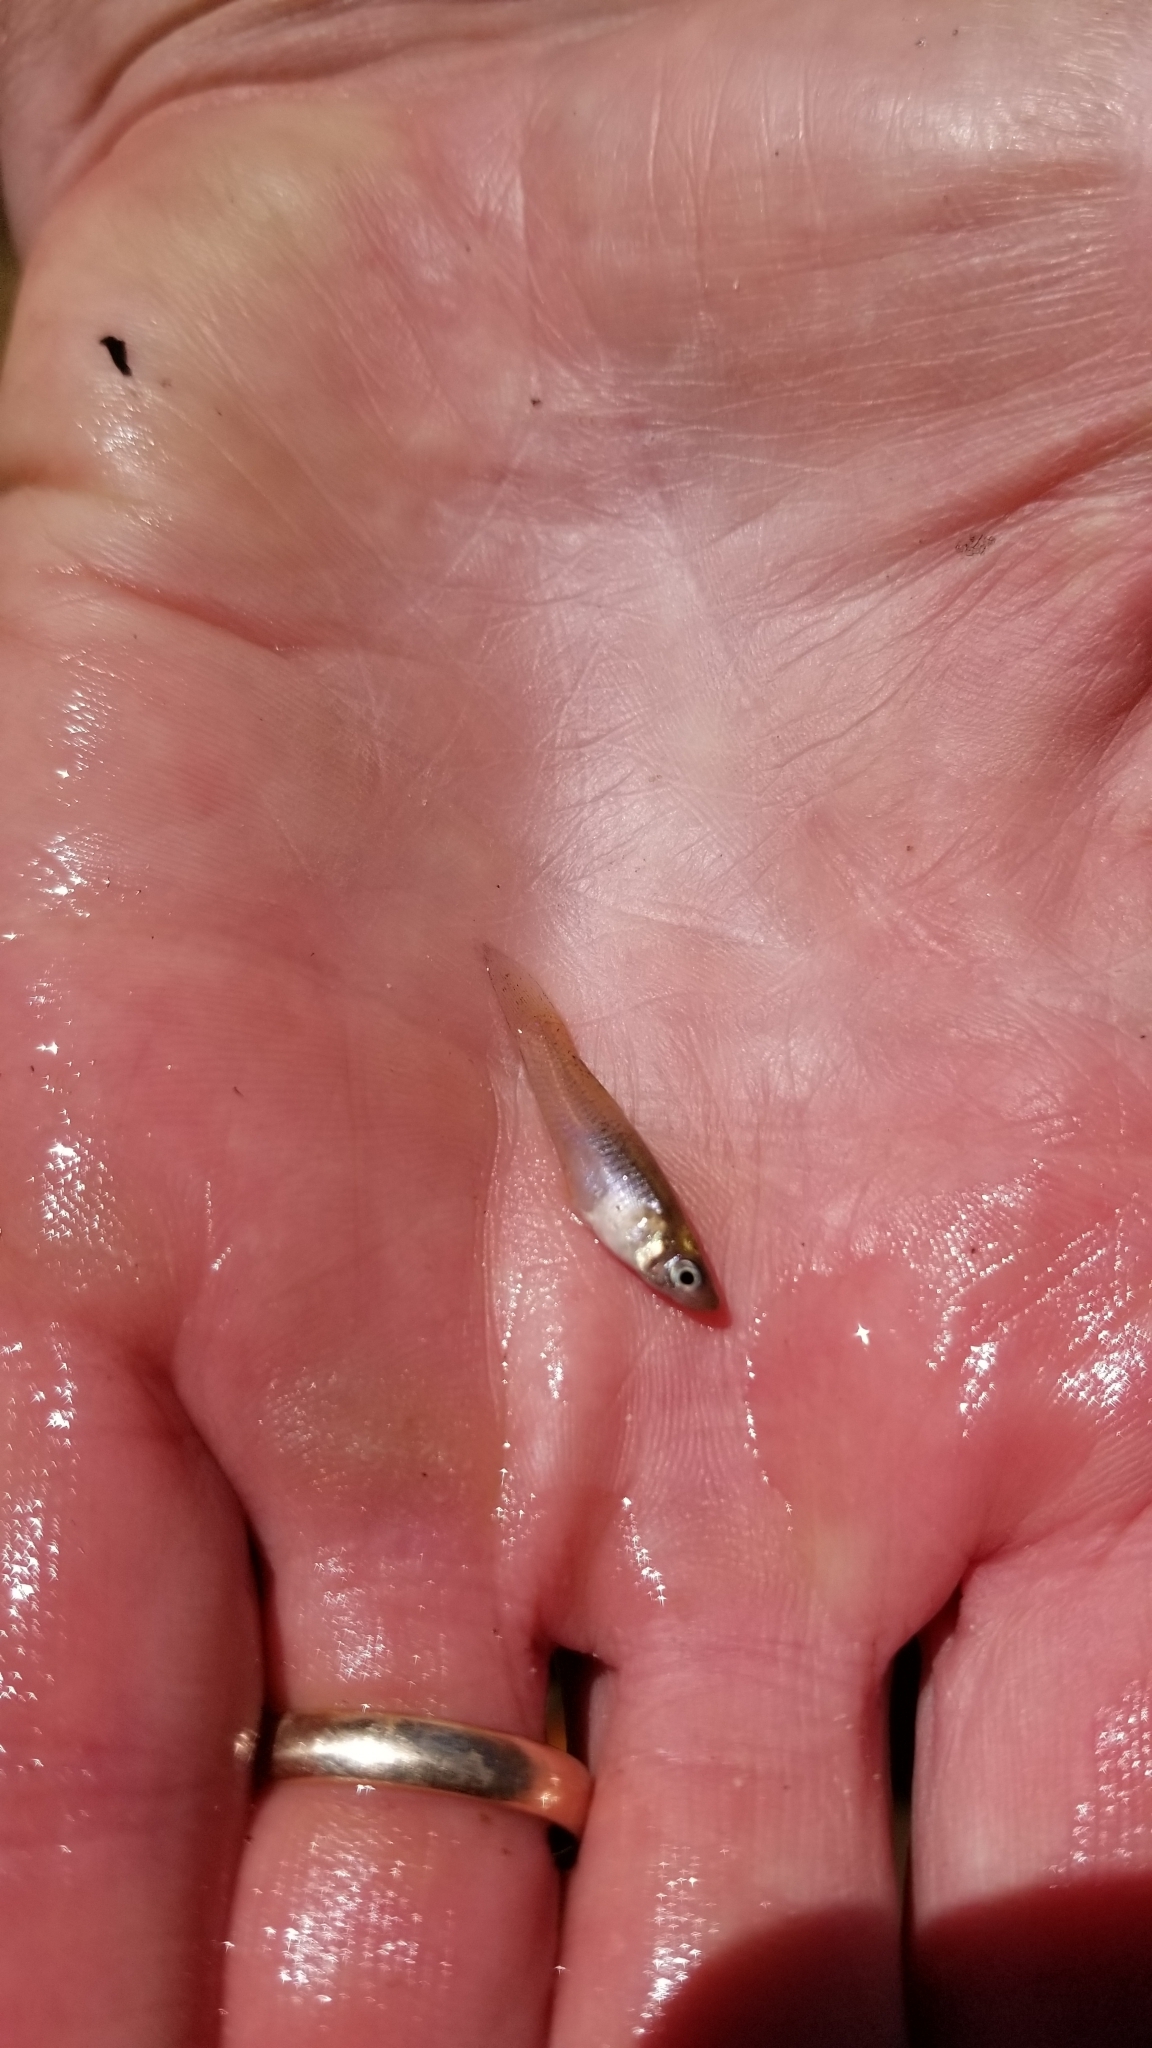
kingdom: Animalia
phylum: Chordata
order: Cyprinodontiformes
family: Poeciliidae
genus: Gambusia
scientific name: Gambusia affinis
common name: Mosquitofish
